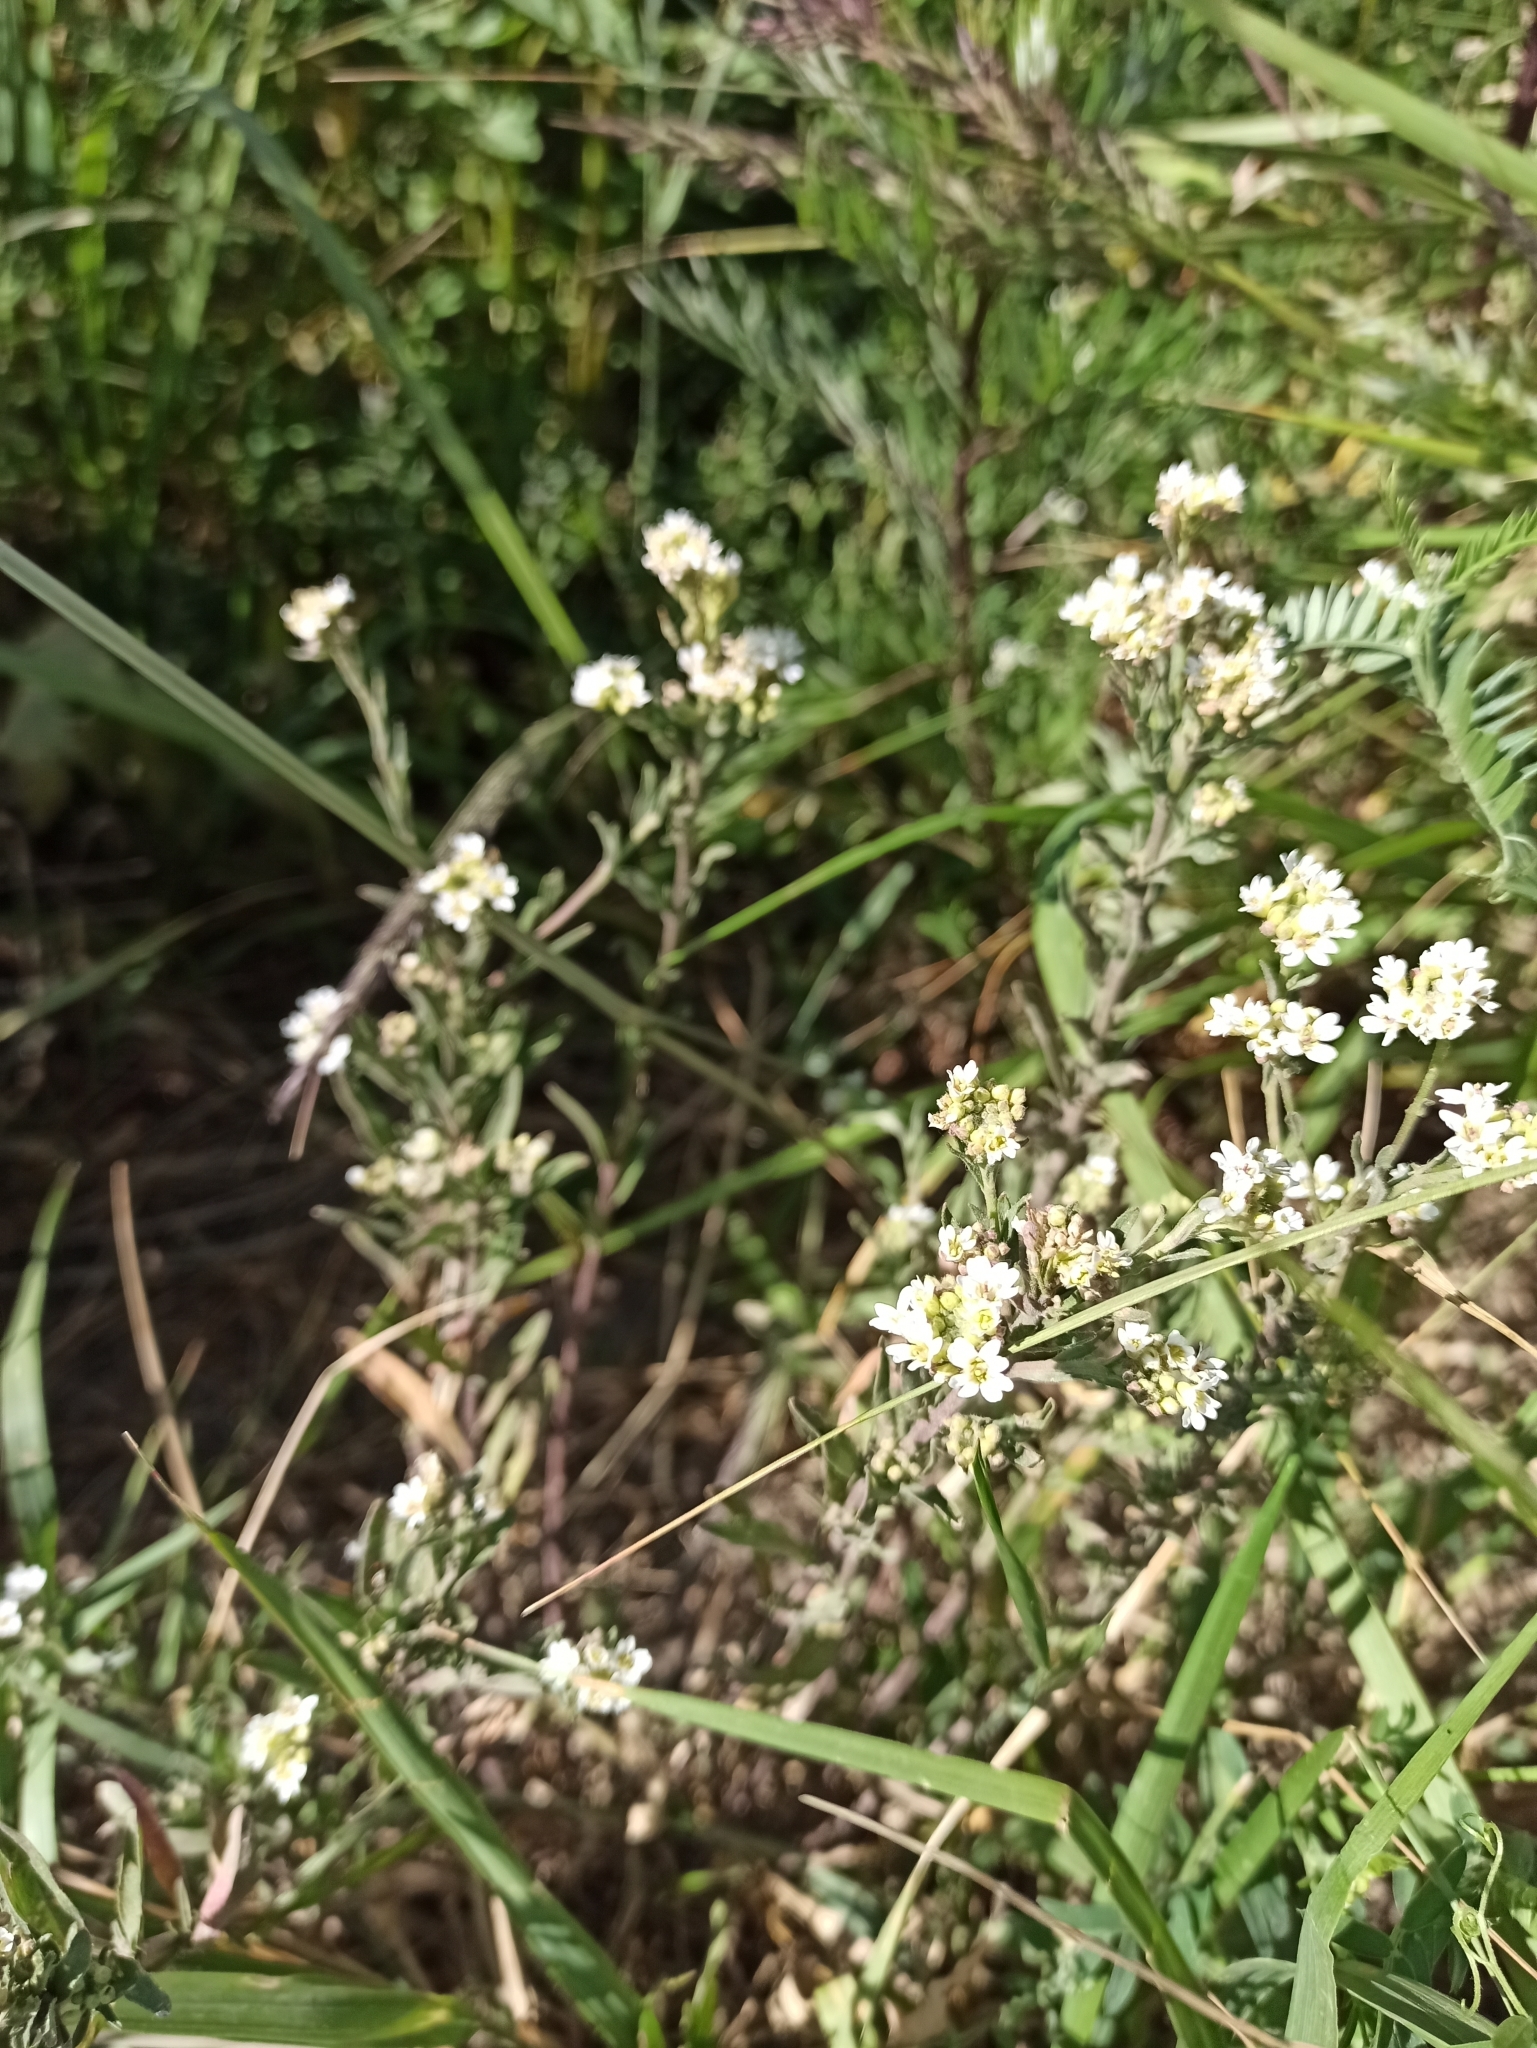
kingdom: Plantae
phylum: Tracheophyta
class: Magnoliopsida
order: Brassicales
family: Brassicaceae
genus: Berteroa
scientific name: Berteroa incana
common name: Hoary alison
